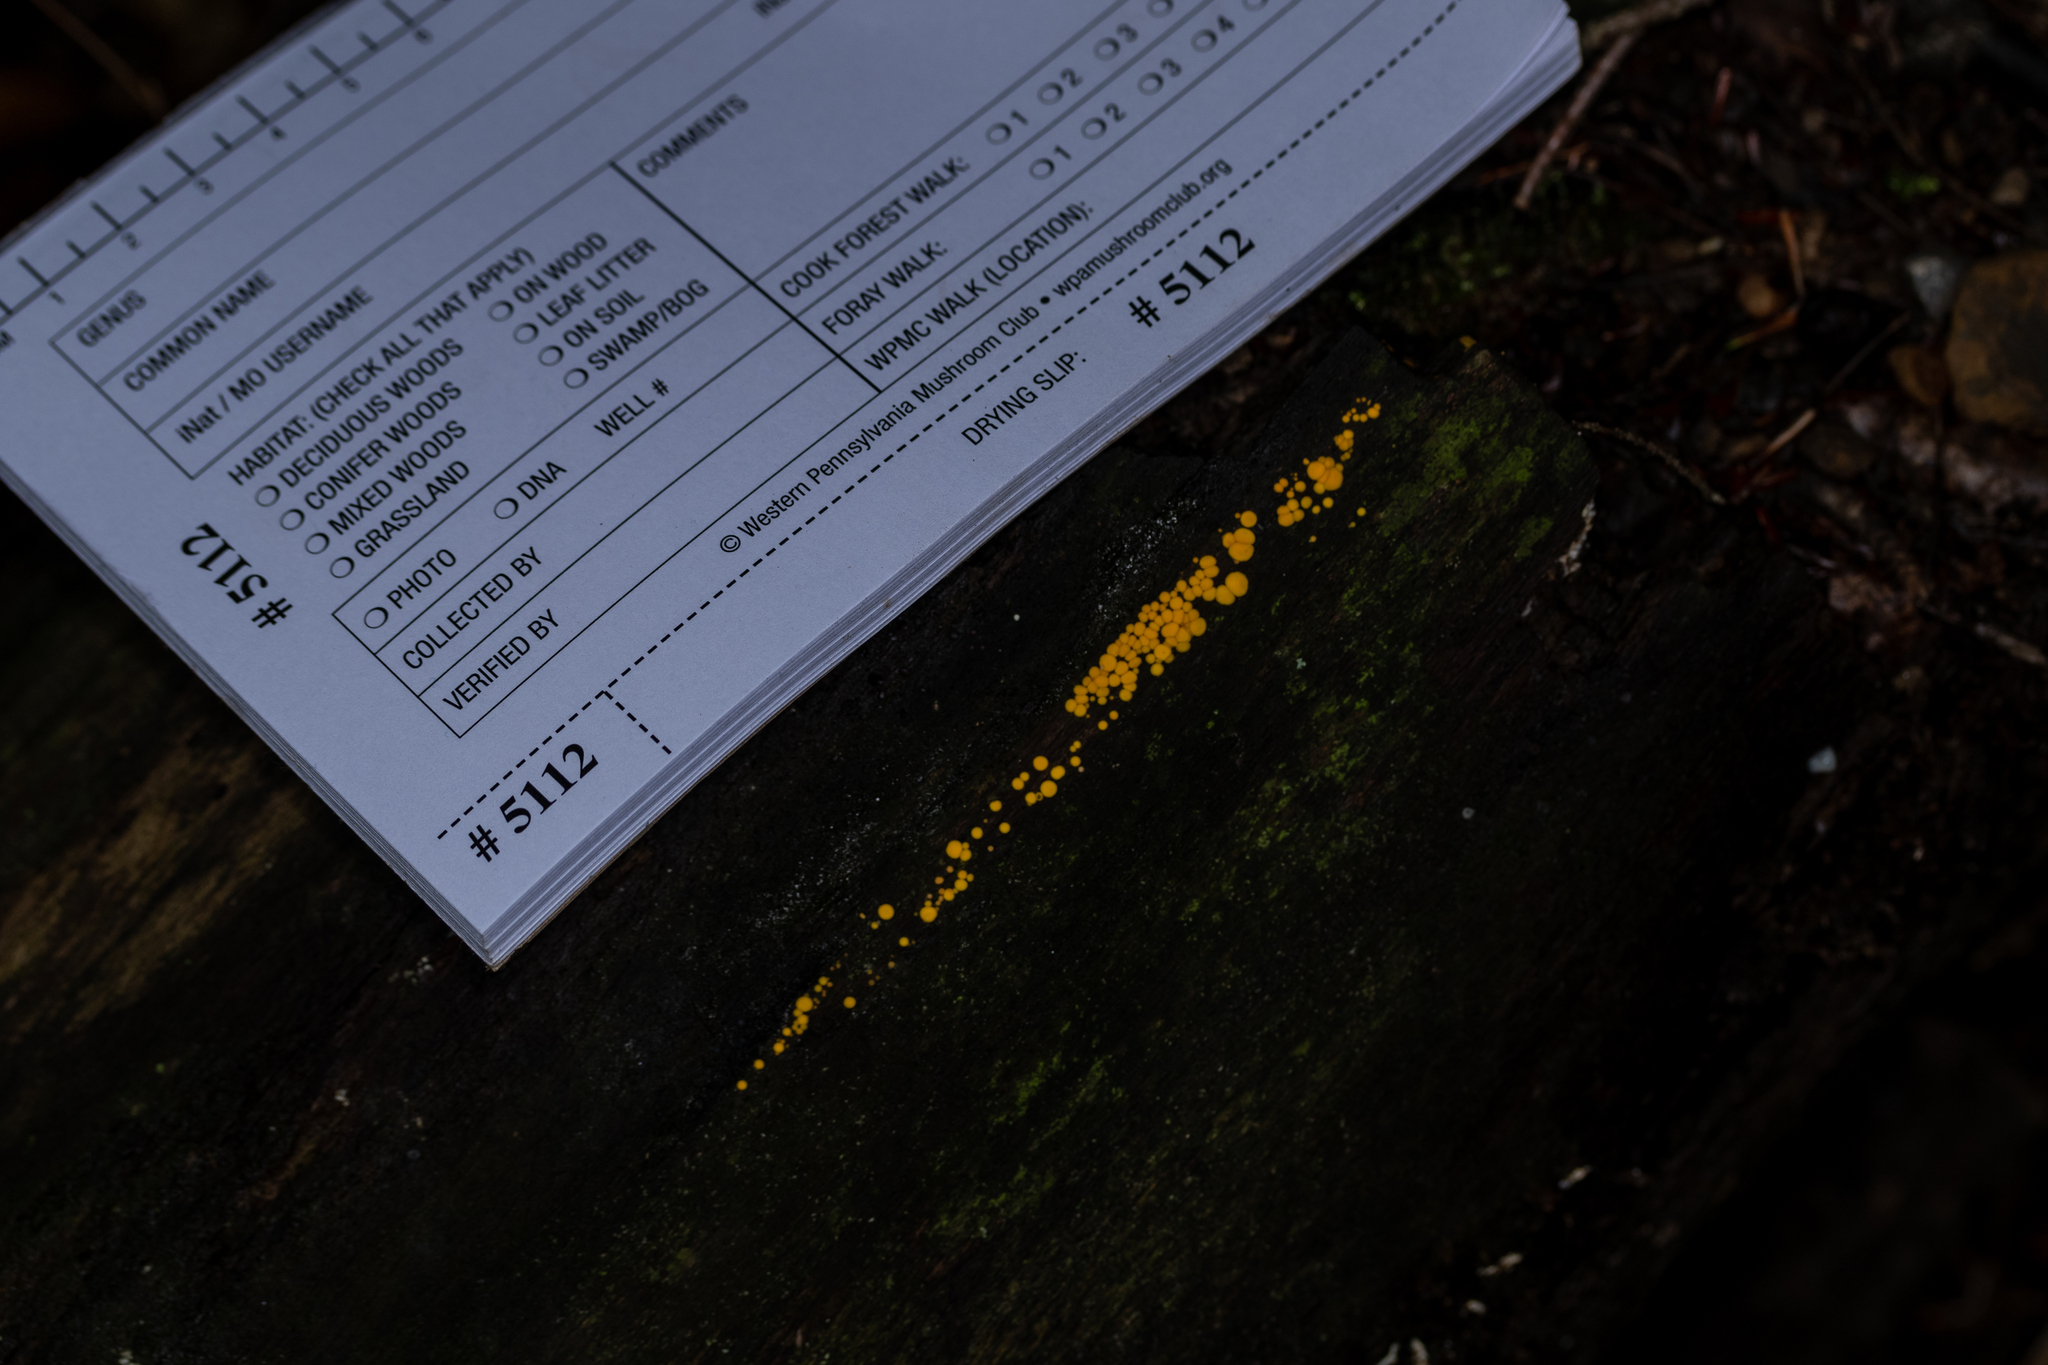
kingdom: Fungi
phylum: Ascomycota
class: Leotiomycetes
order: Helotiales
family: Pezizellaceae
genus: Calycina
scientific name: Calycina citrina
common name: Yellow fairy cups
